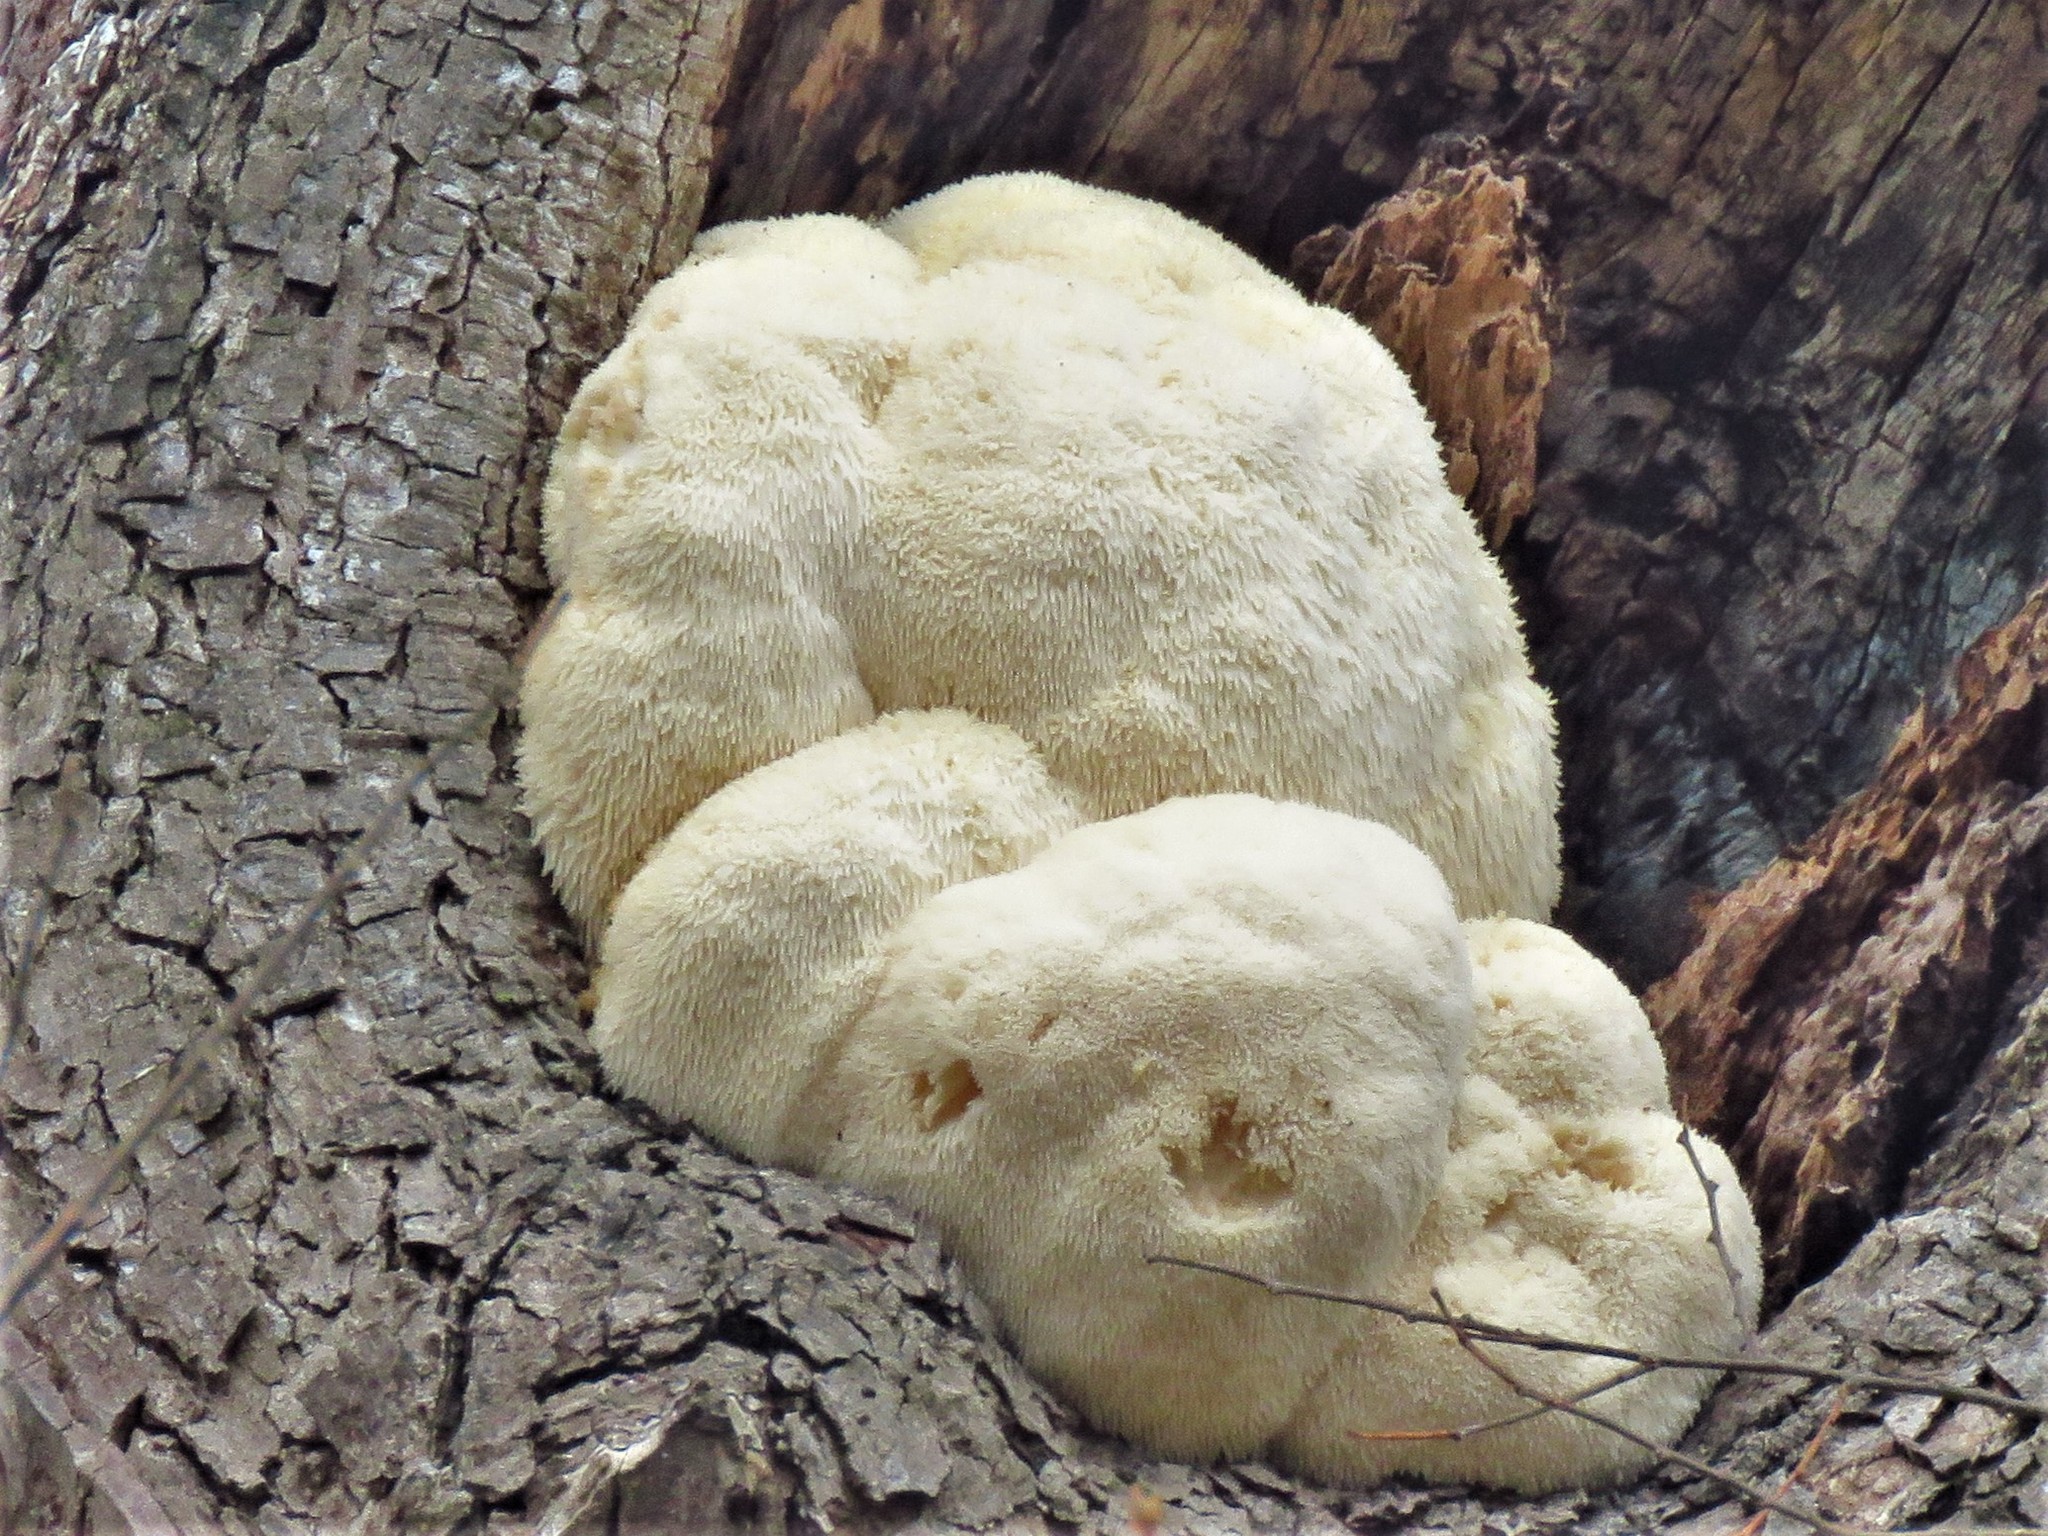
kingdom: Fungi
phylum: Basidiomycota
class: Agaricomycetes
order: Russulales
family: Hericiaceae
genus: Hericium
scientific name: Hericium erinaceus
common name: Bearded tooth
